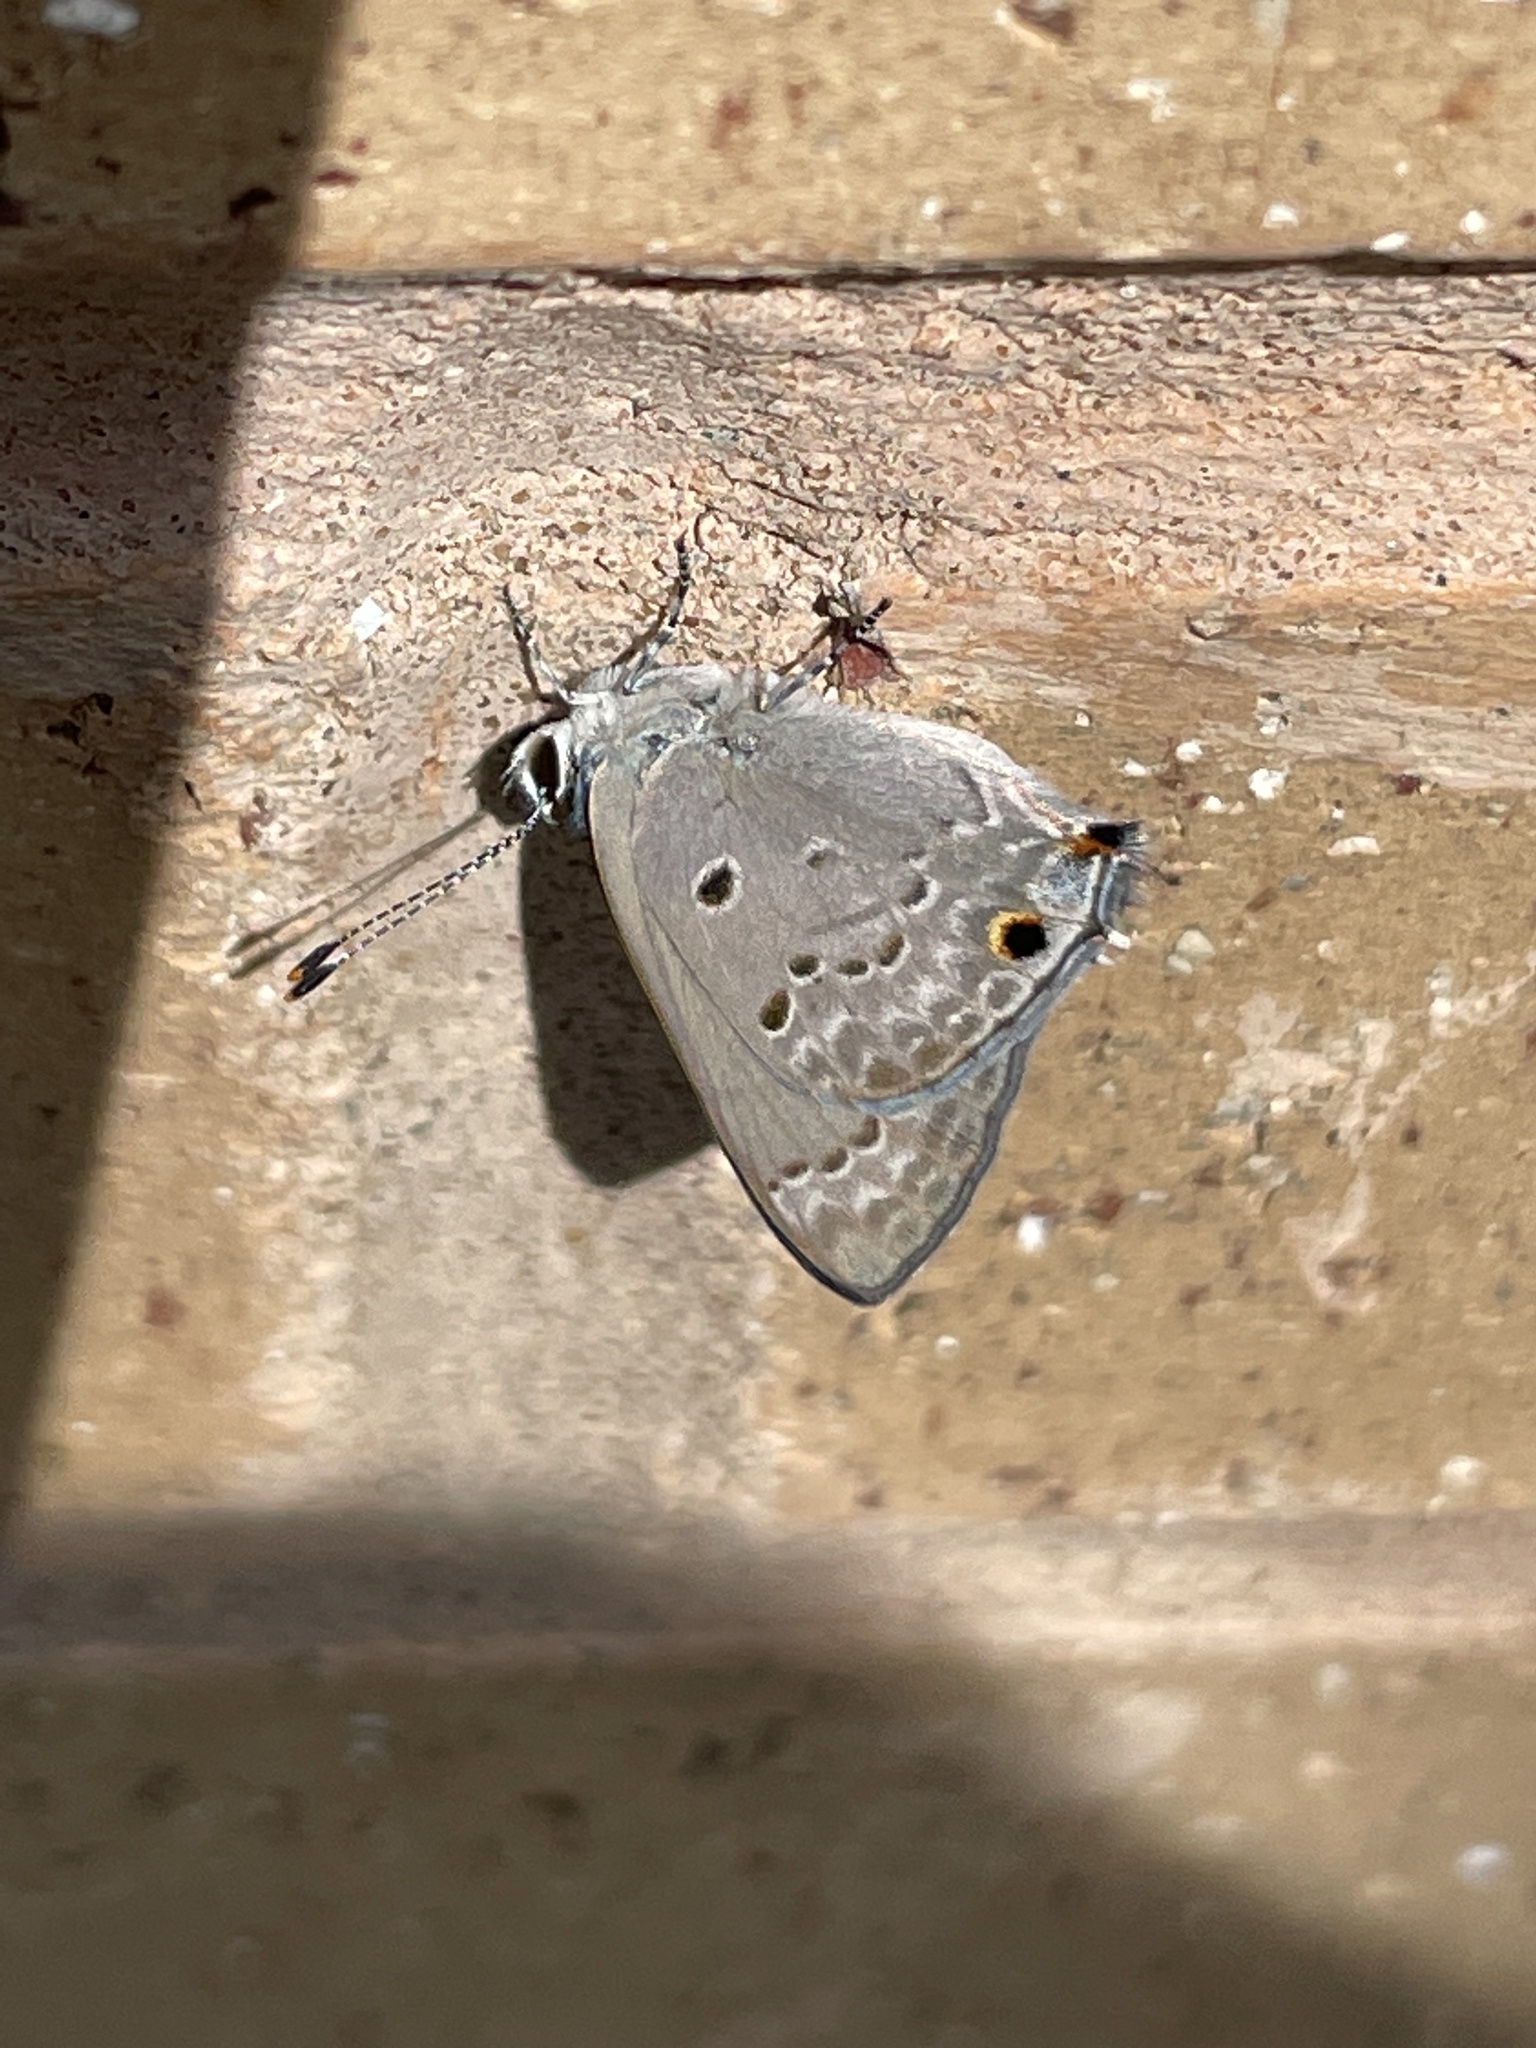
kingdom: Animalia
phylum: Arthropoda
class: Insecta
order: Lepidoptera
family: Lycaenidae
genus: Callicista
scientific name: Callicista columella
